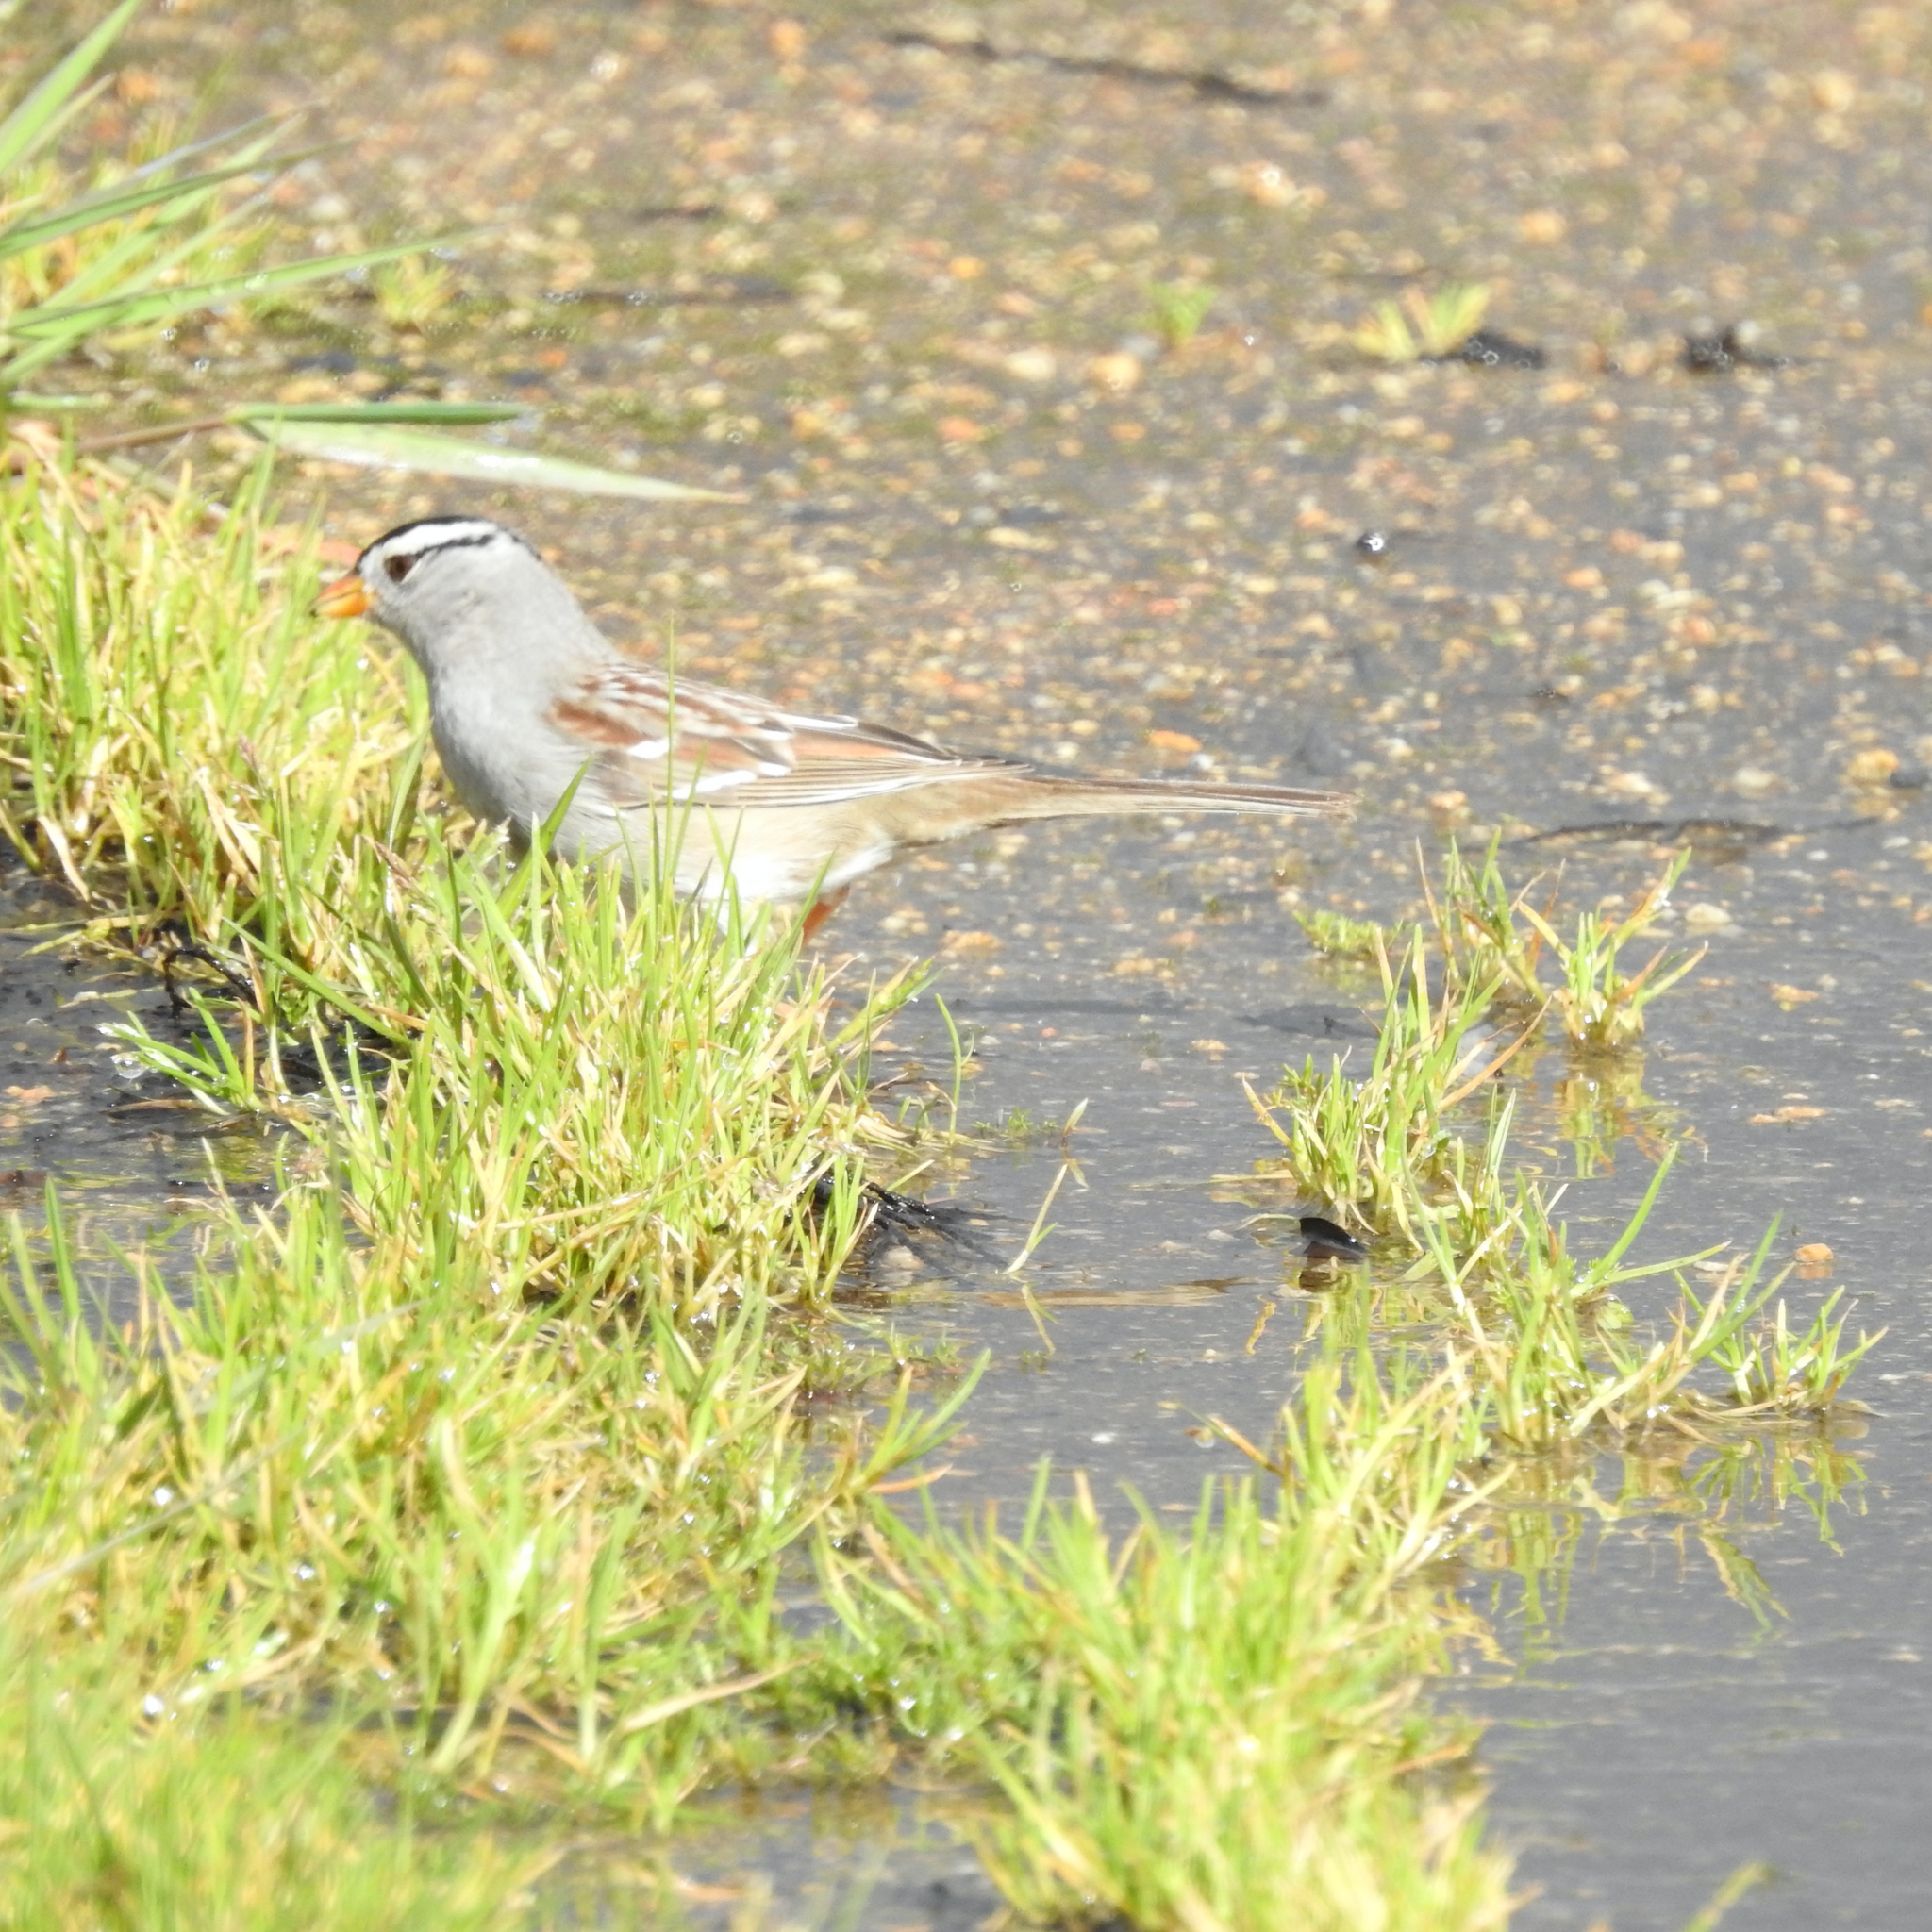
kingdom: Animalia
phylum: Chordata
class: Aves
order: Passeriformes
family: Passerellidae
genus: Zonotrichia
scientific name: Zonotrichia leucophrys
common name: White-crowned sparrow
